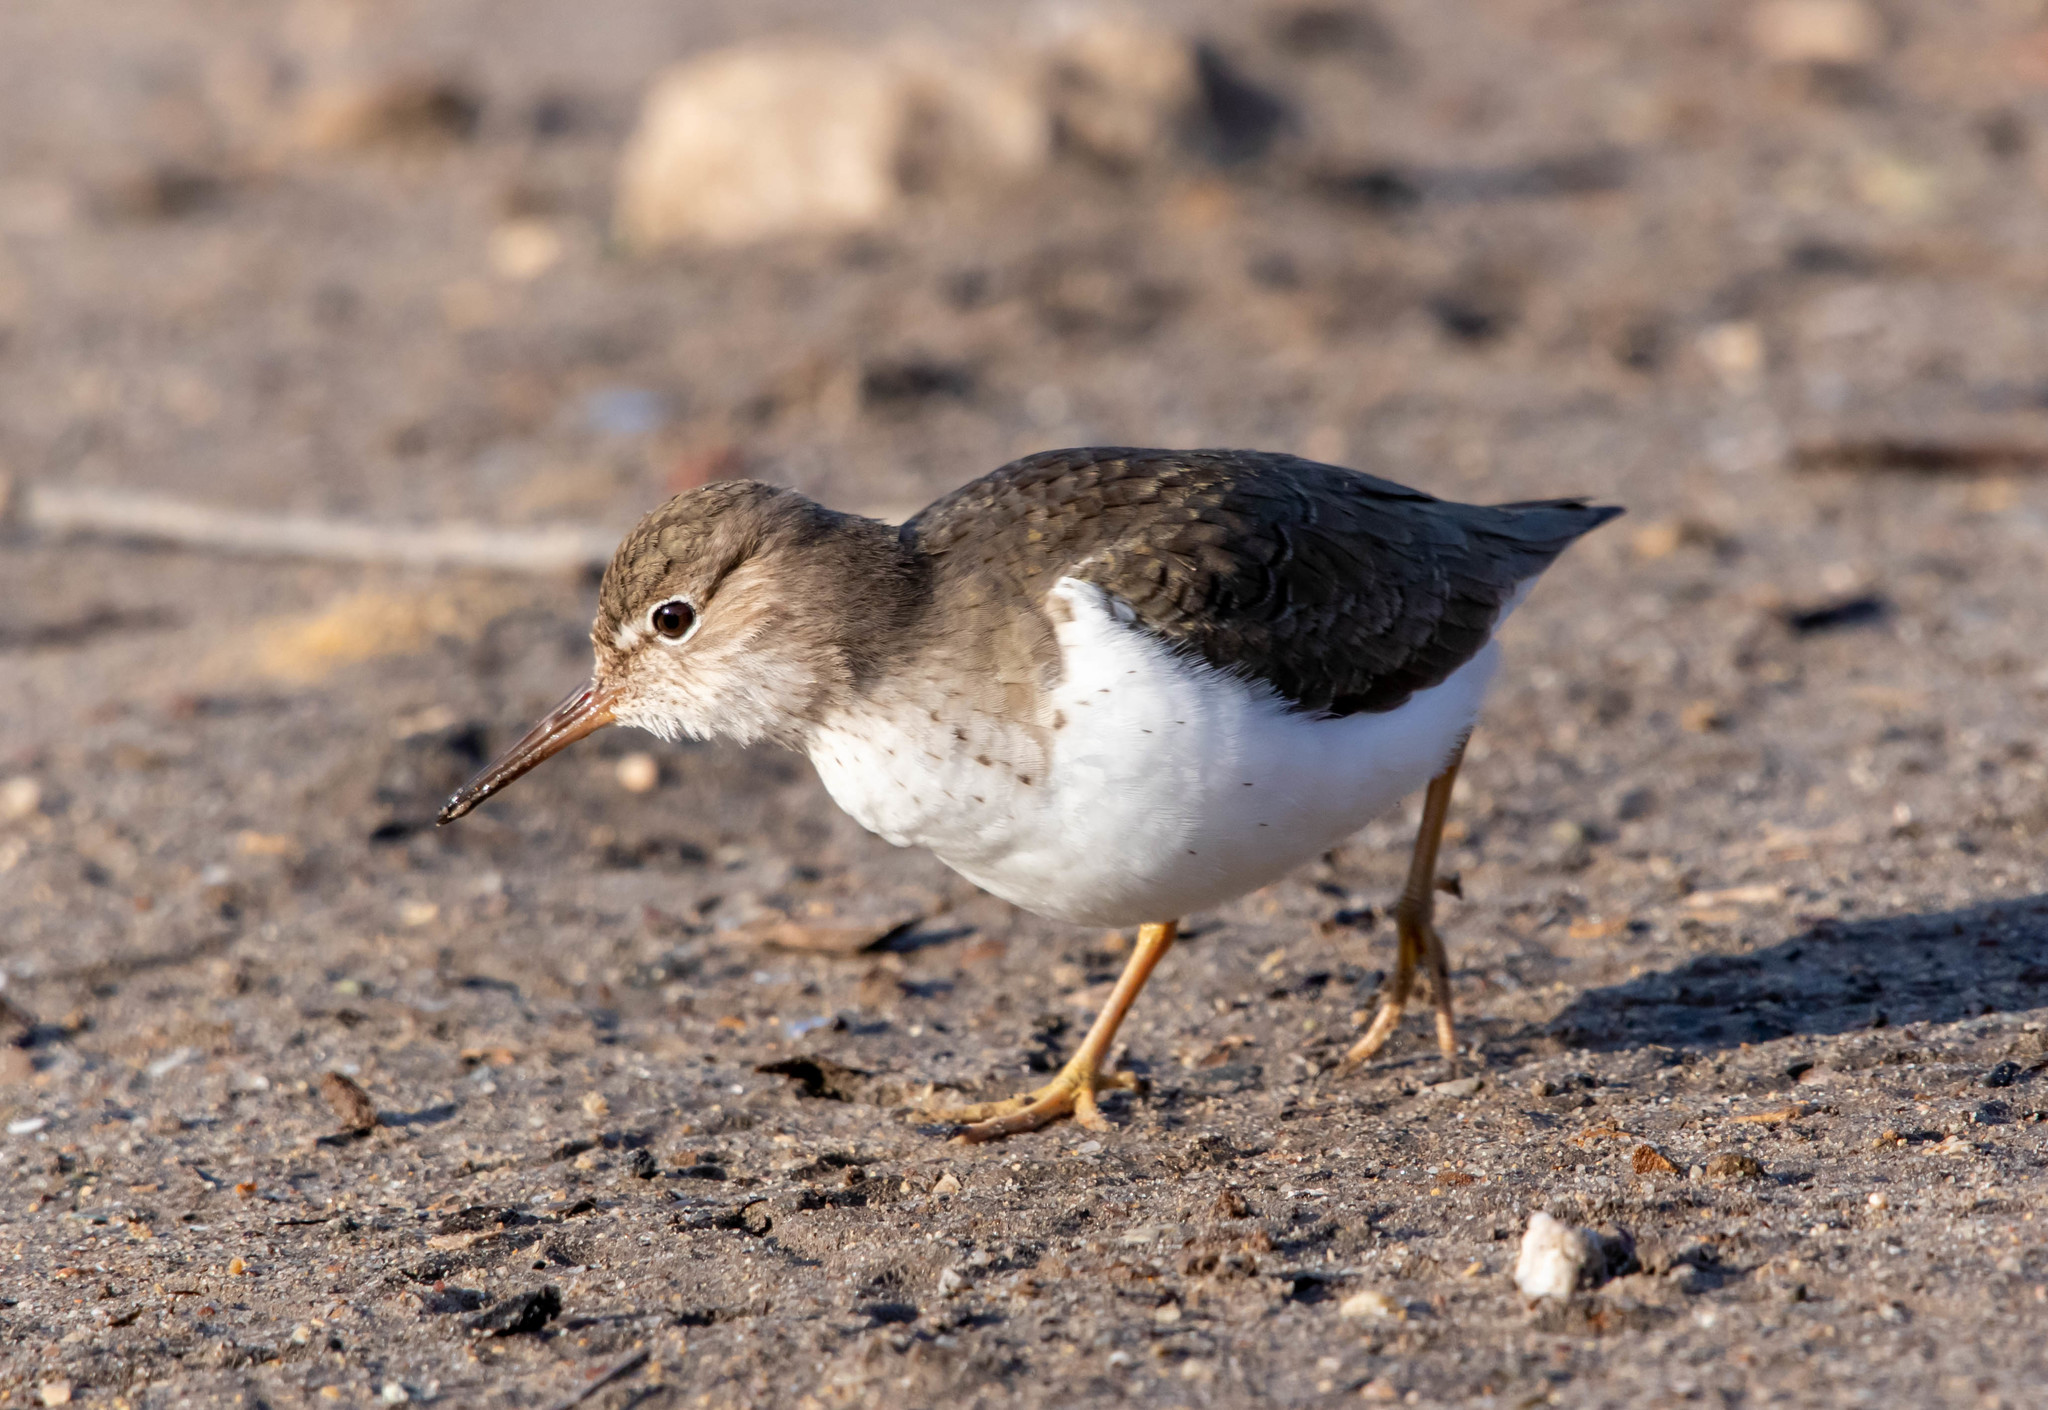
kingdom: Animalia
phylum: Chordata
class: Aves
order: Charadriiformes
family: Scolopacidae
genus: Actitis
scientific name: Actitis macularius
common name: Spotted sandpiper
